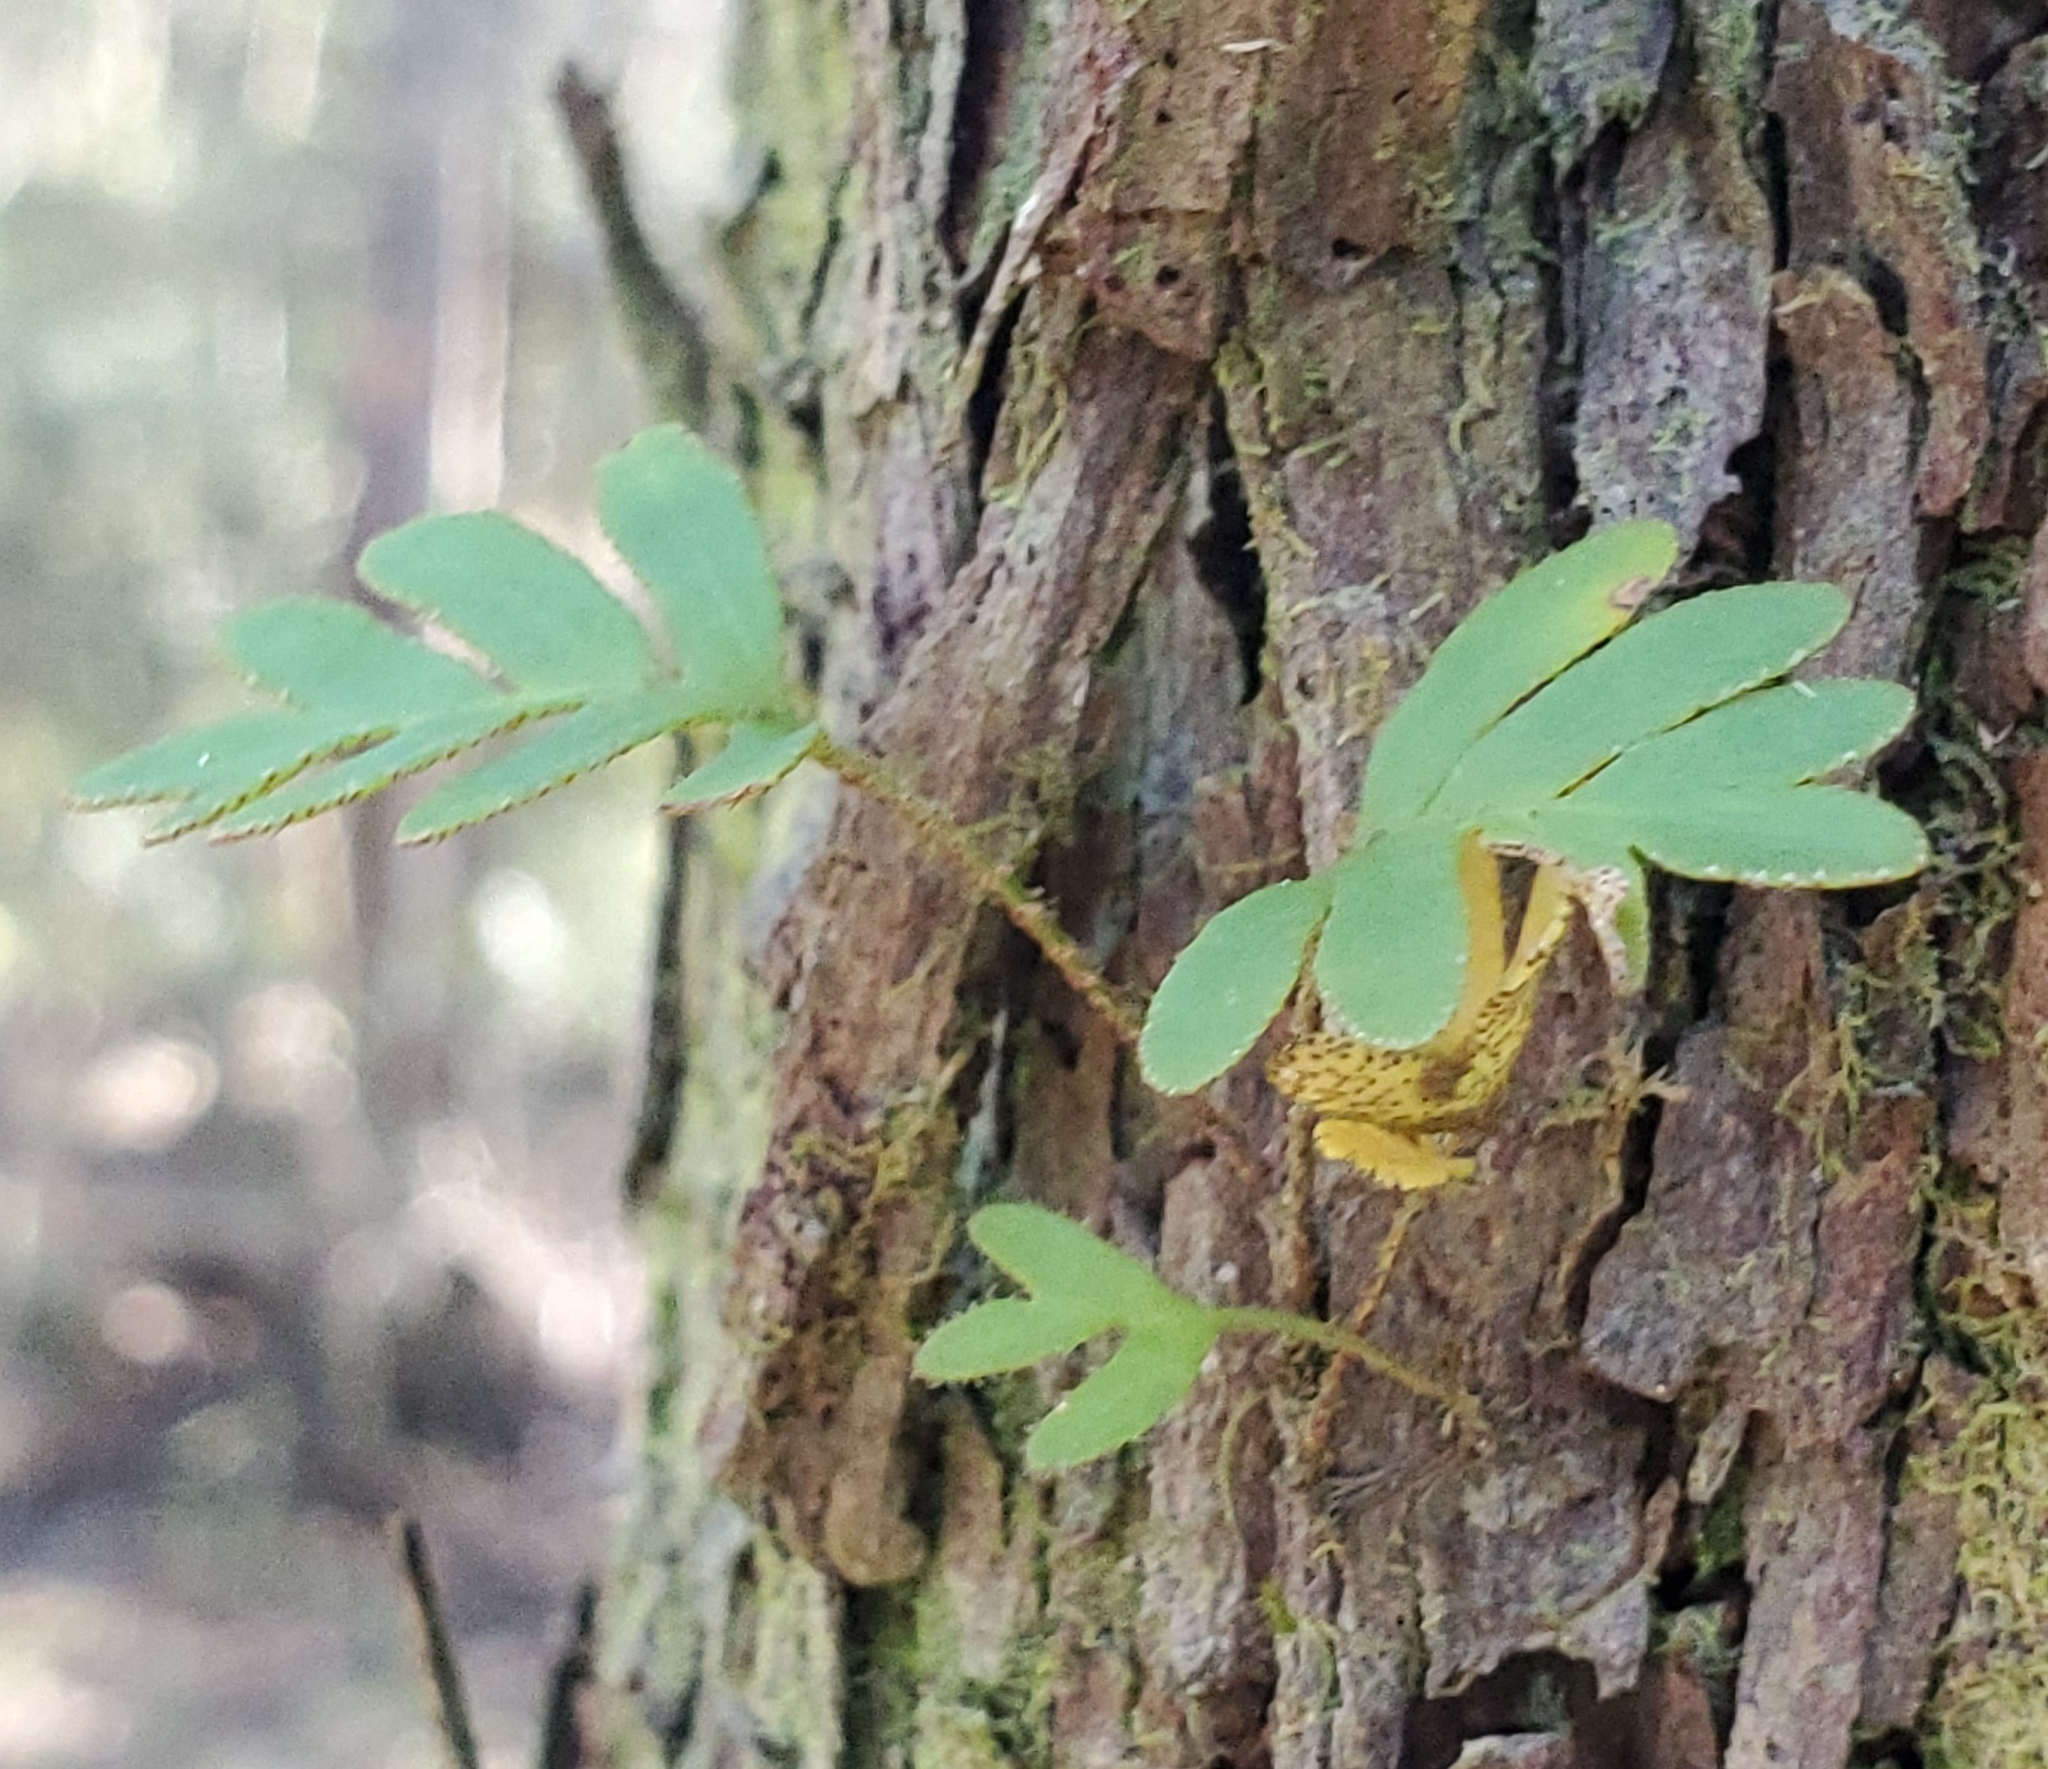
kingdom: Plantae
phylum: Tracheophyta
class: Polypodiopsida
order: Polypodiales
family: Polypodiaceae
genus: Pleopeltis
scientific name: Pleopeltis michauxiana
